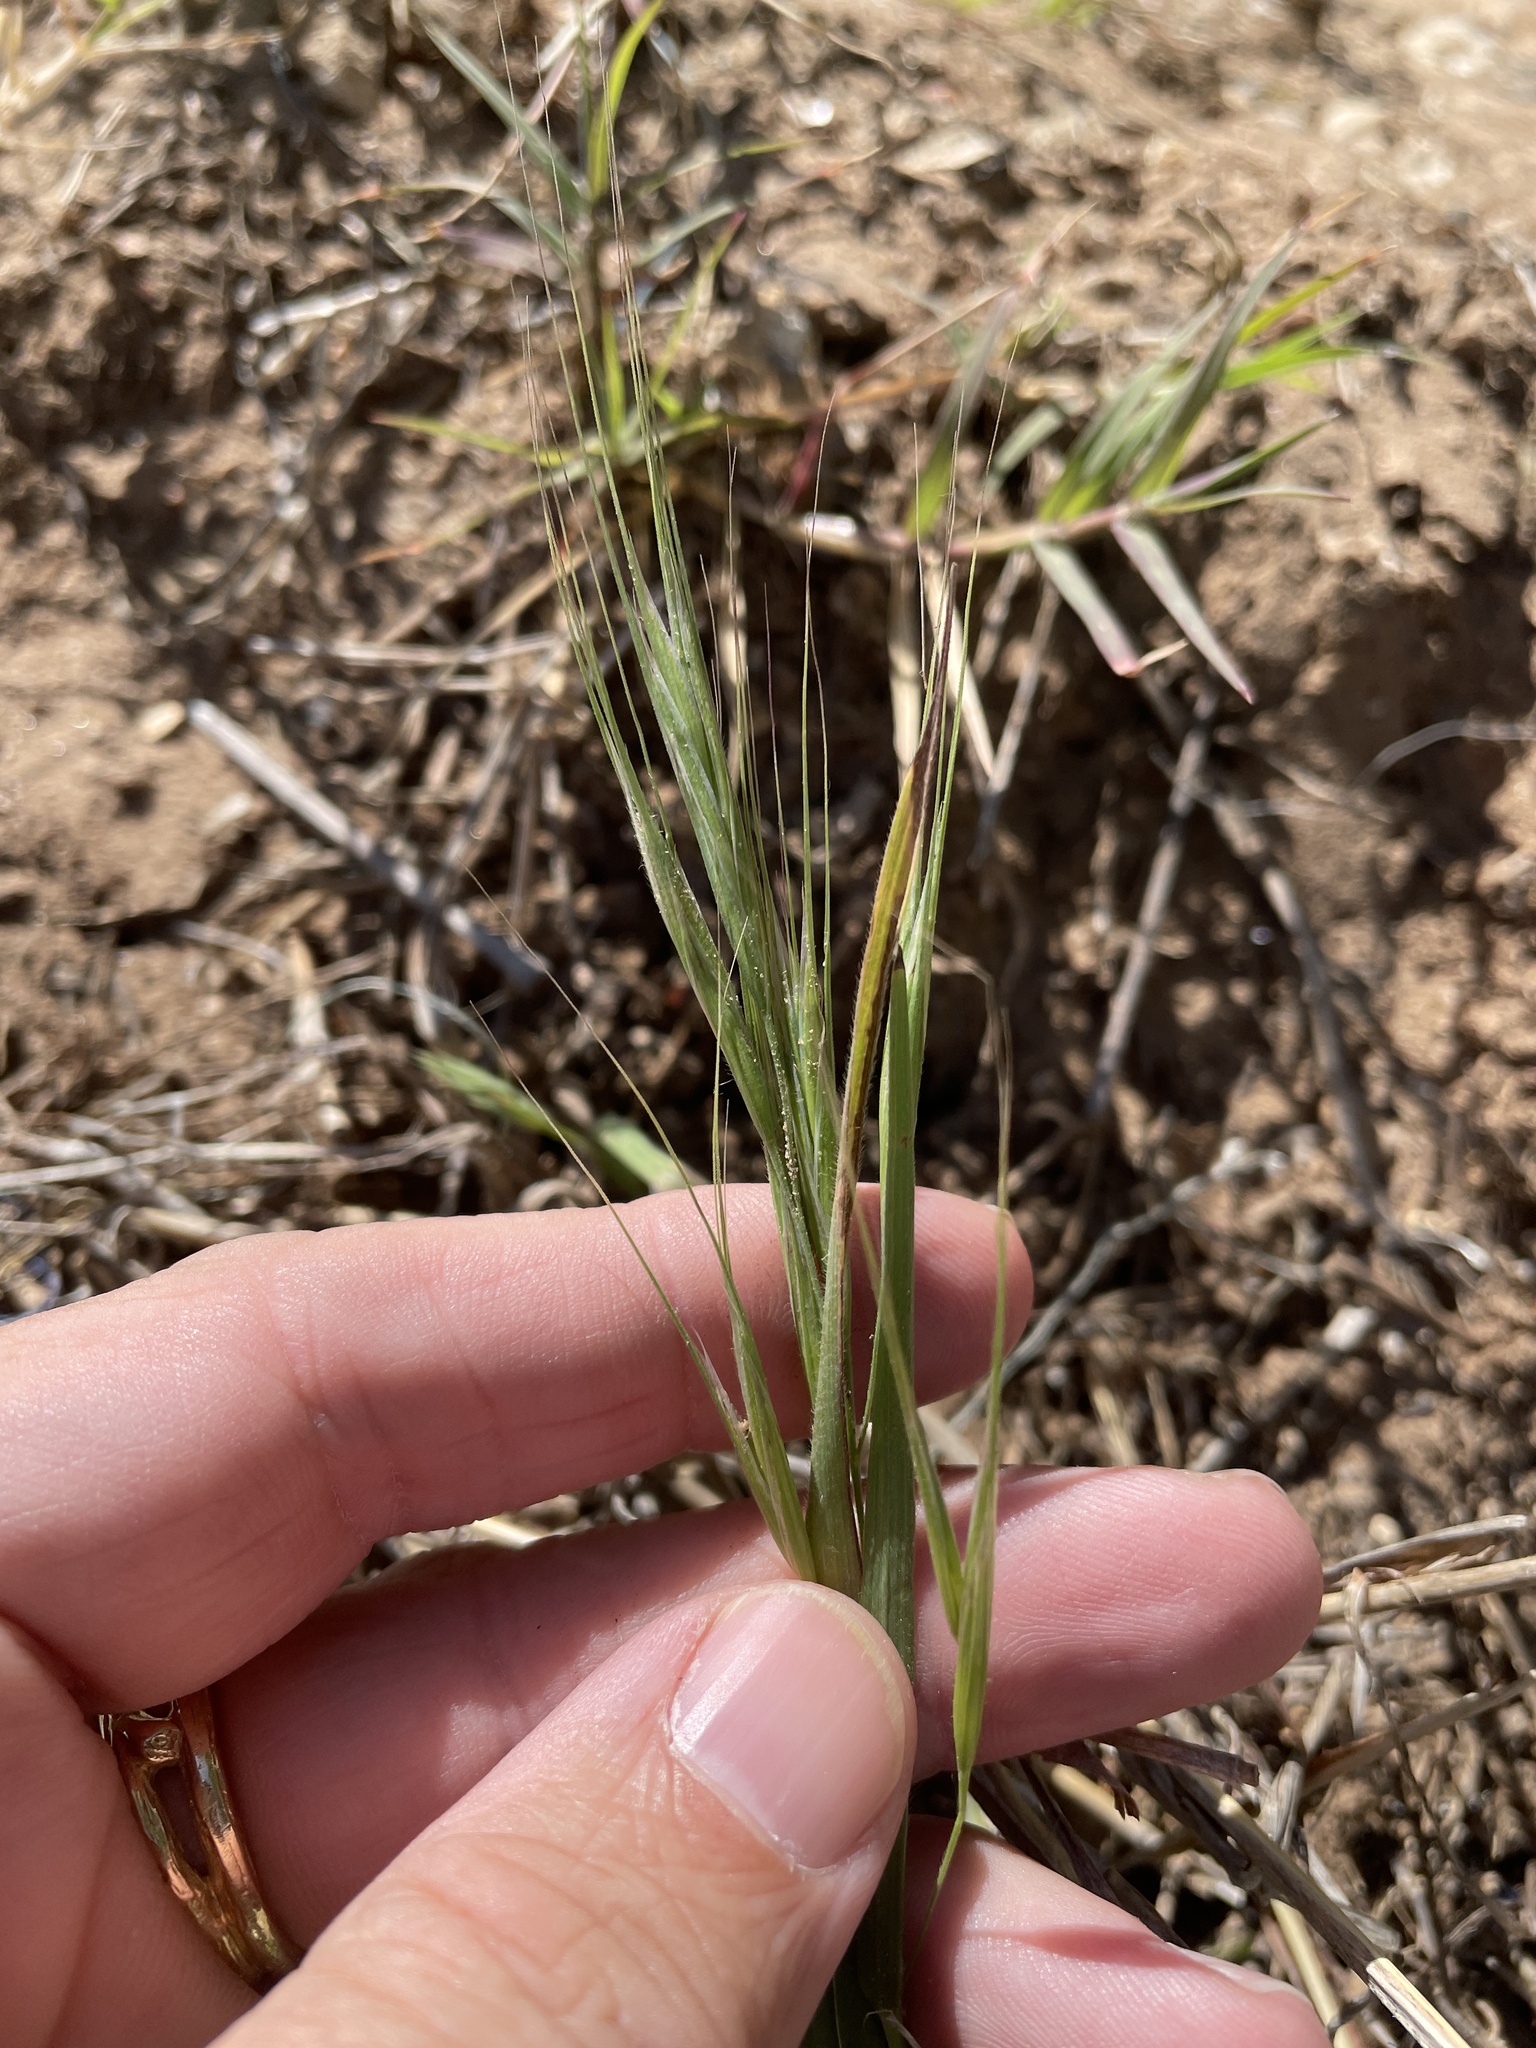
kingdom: Plantae
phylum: Tracheophyta
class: Liliopsida
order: Poales
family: Poaceae
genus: Bromus
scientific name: Bromus diandrus
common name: Ripgut brome
